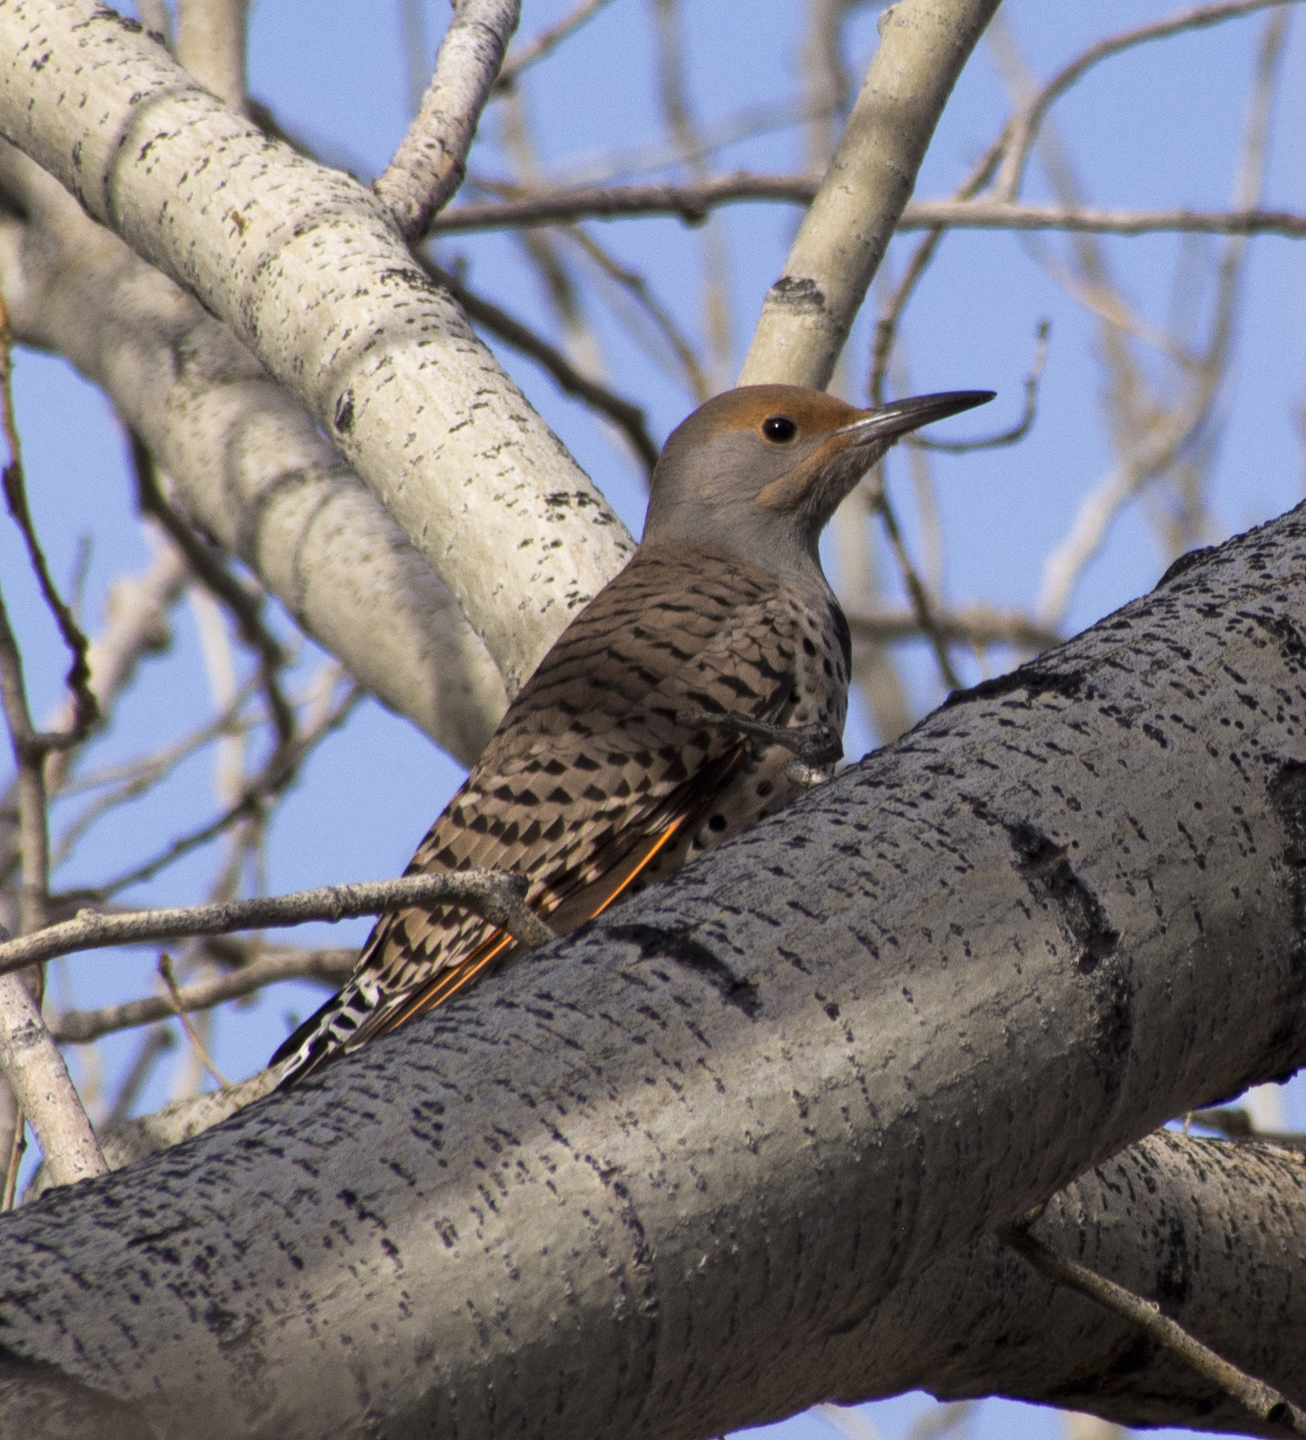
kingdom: Animalia
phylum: Chordata
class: Aves
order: Piciformes
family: Picidae
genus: Colaptes
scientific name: Colaptes auratus
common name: Northern flicker
